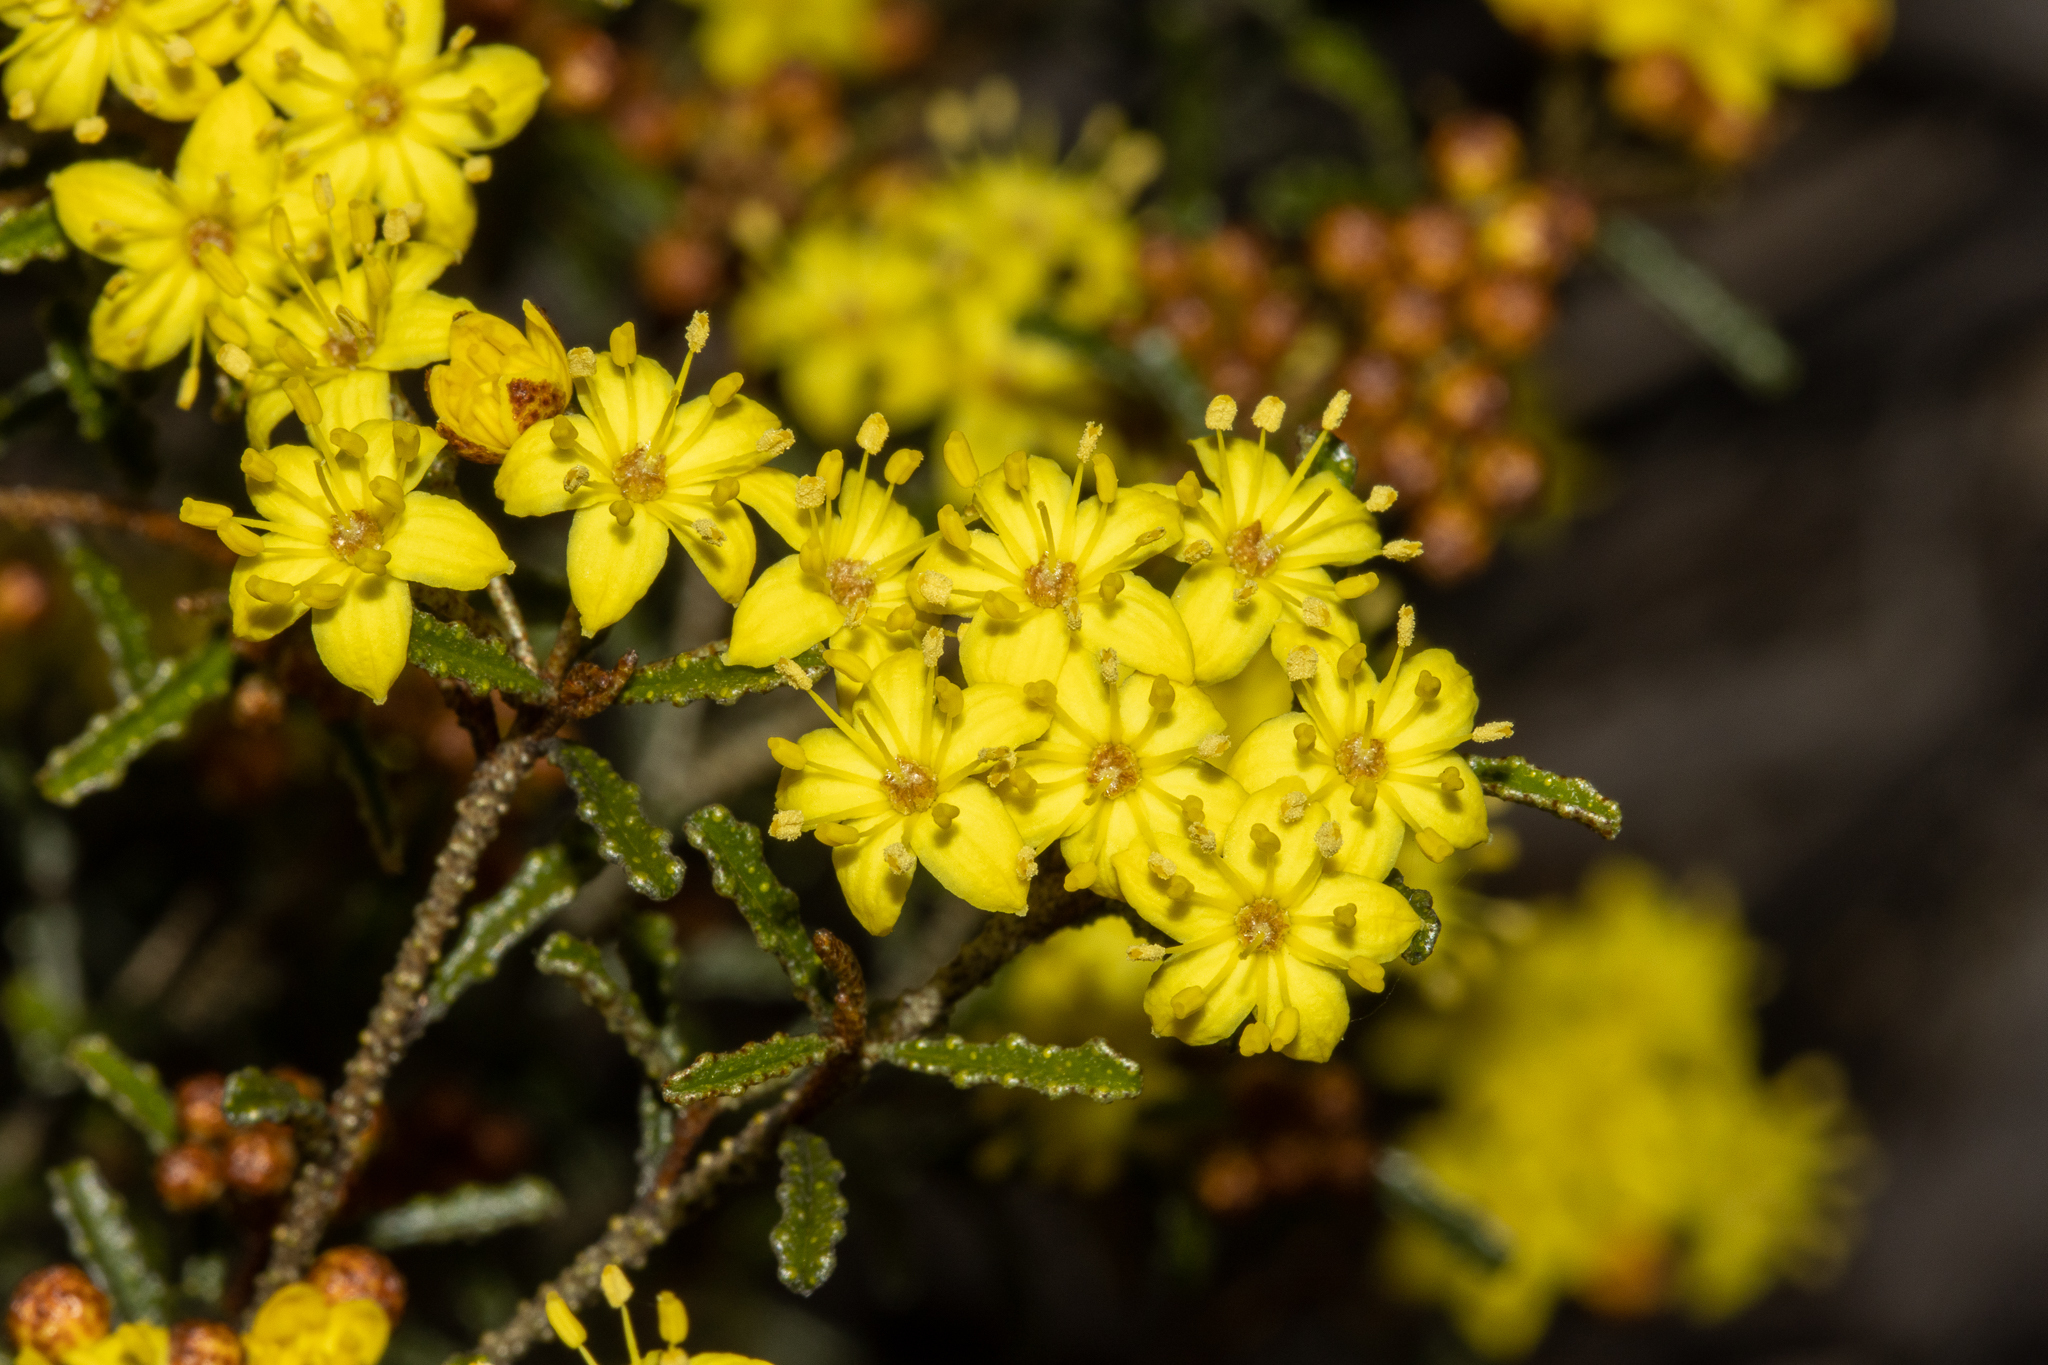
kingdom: Plantae
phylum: Tracheophyta
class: Magnoliopsida
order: Sapindales
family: Rutaceae
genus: Phebalium
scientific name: Phebalium bullatum
